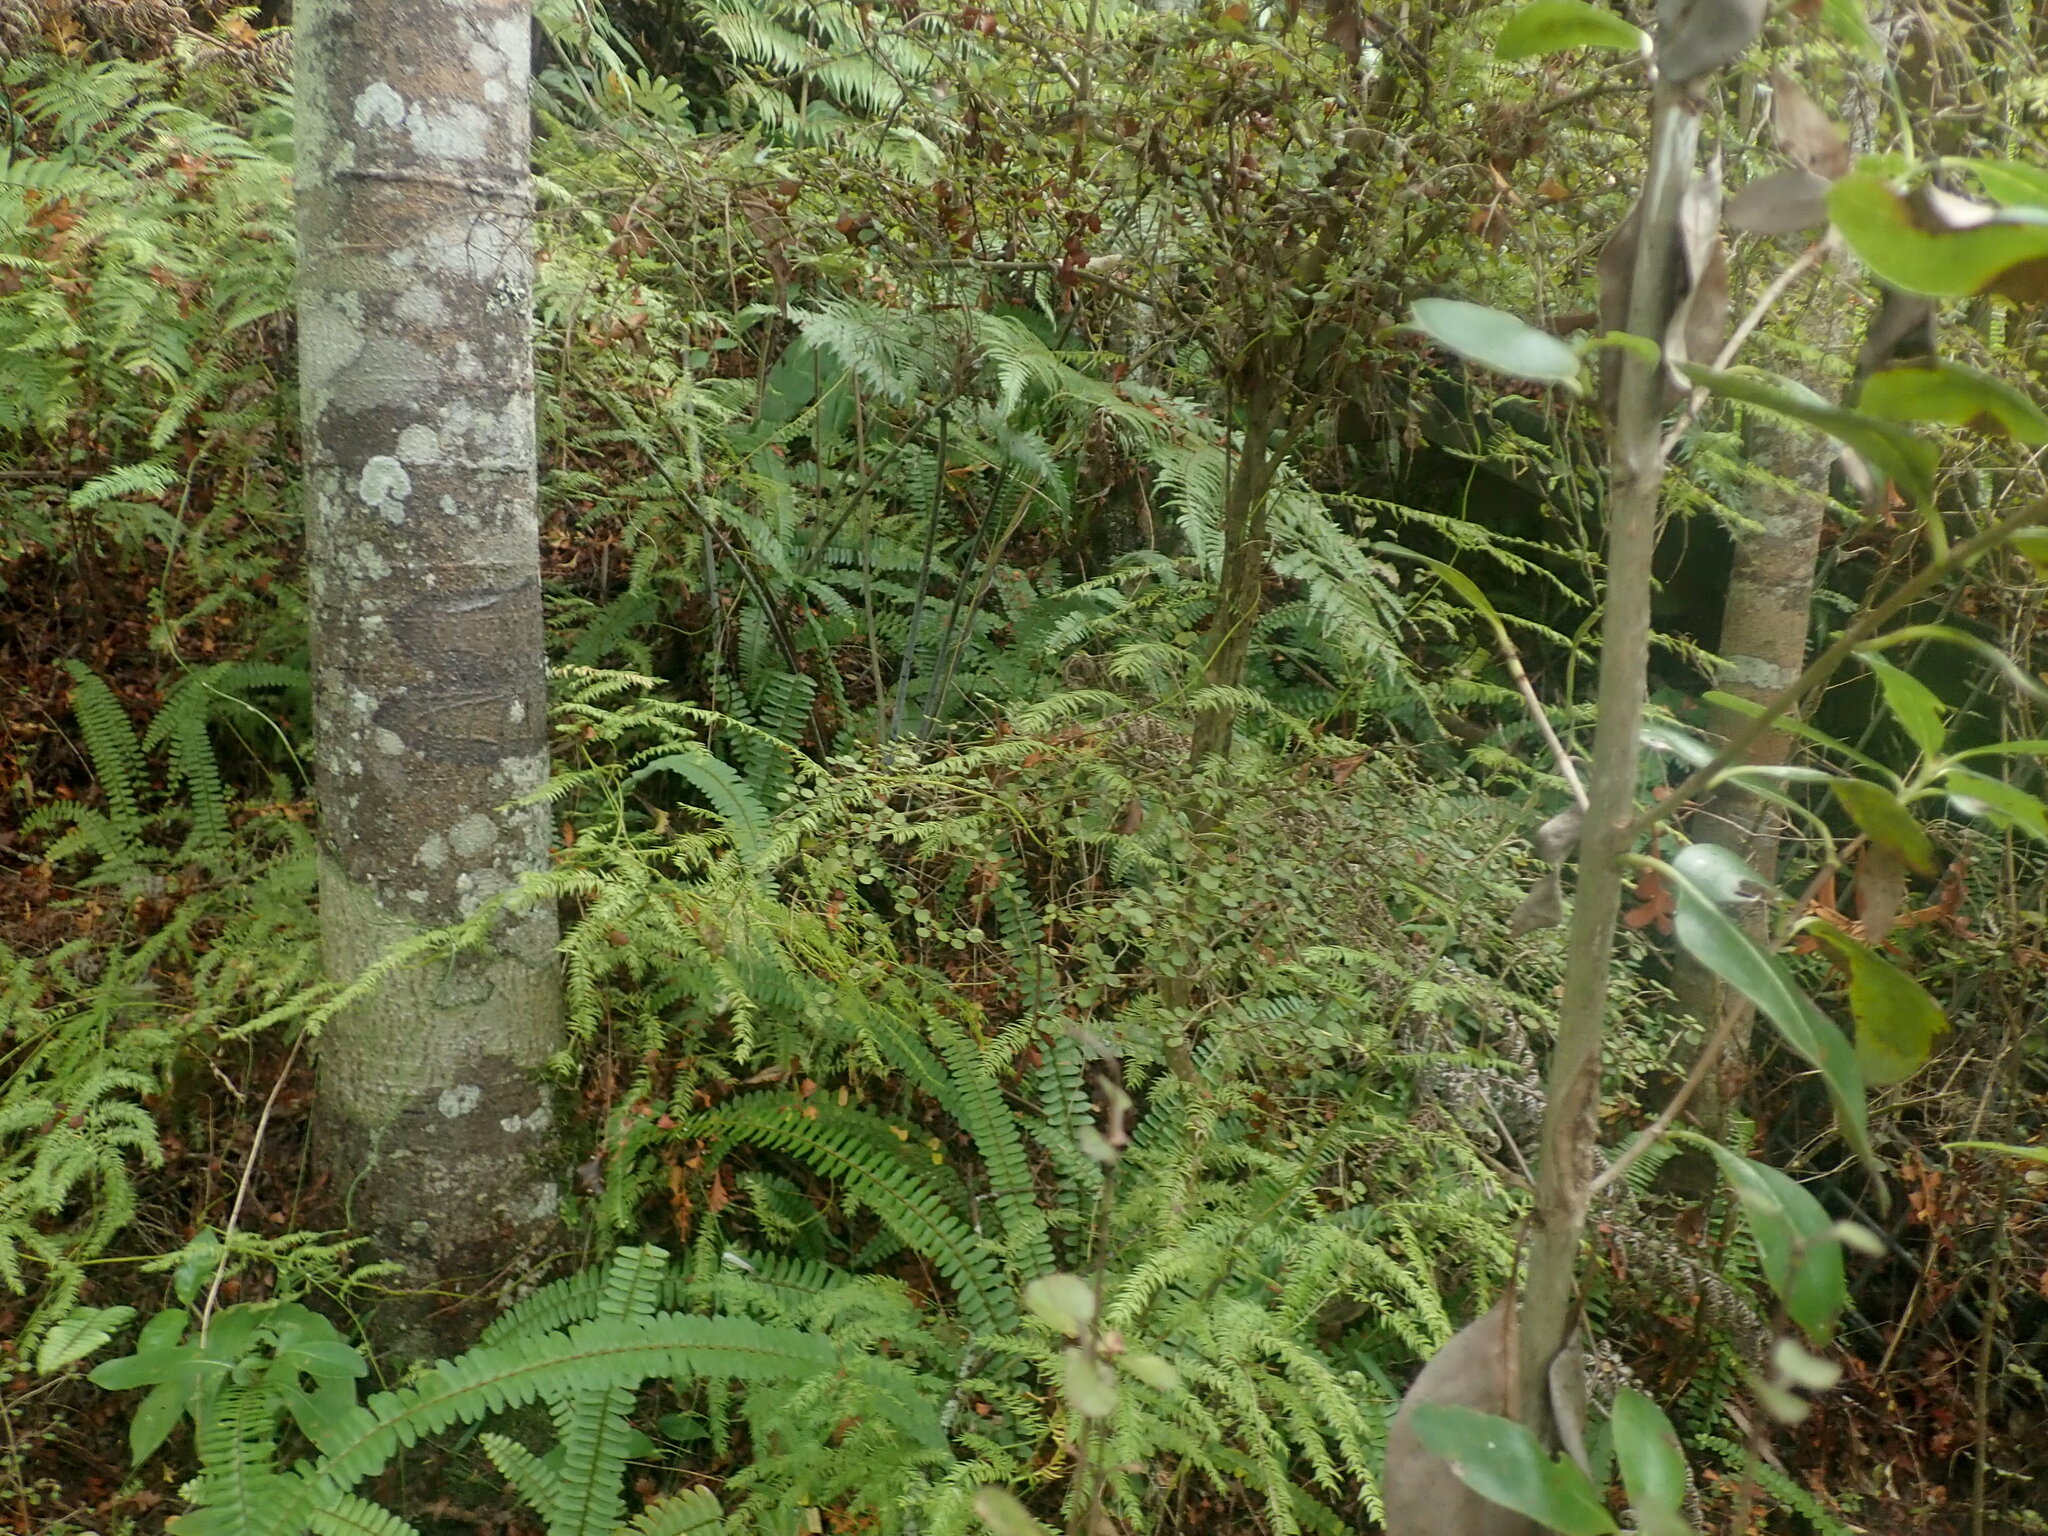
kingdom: Plantae
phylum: Tracheophyta
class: Polypodiopsida
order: Polypodiales
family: Nephrolepidaceae
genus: Nephrolepis
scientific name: Nephrolepis cordifolia
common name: Narrow swordfern
